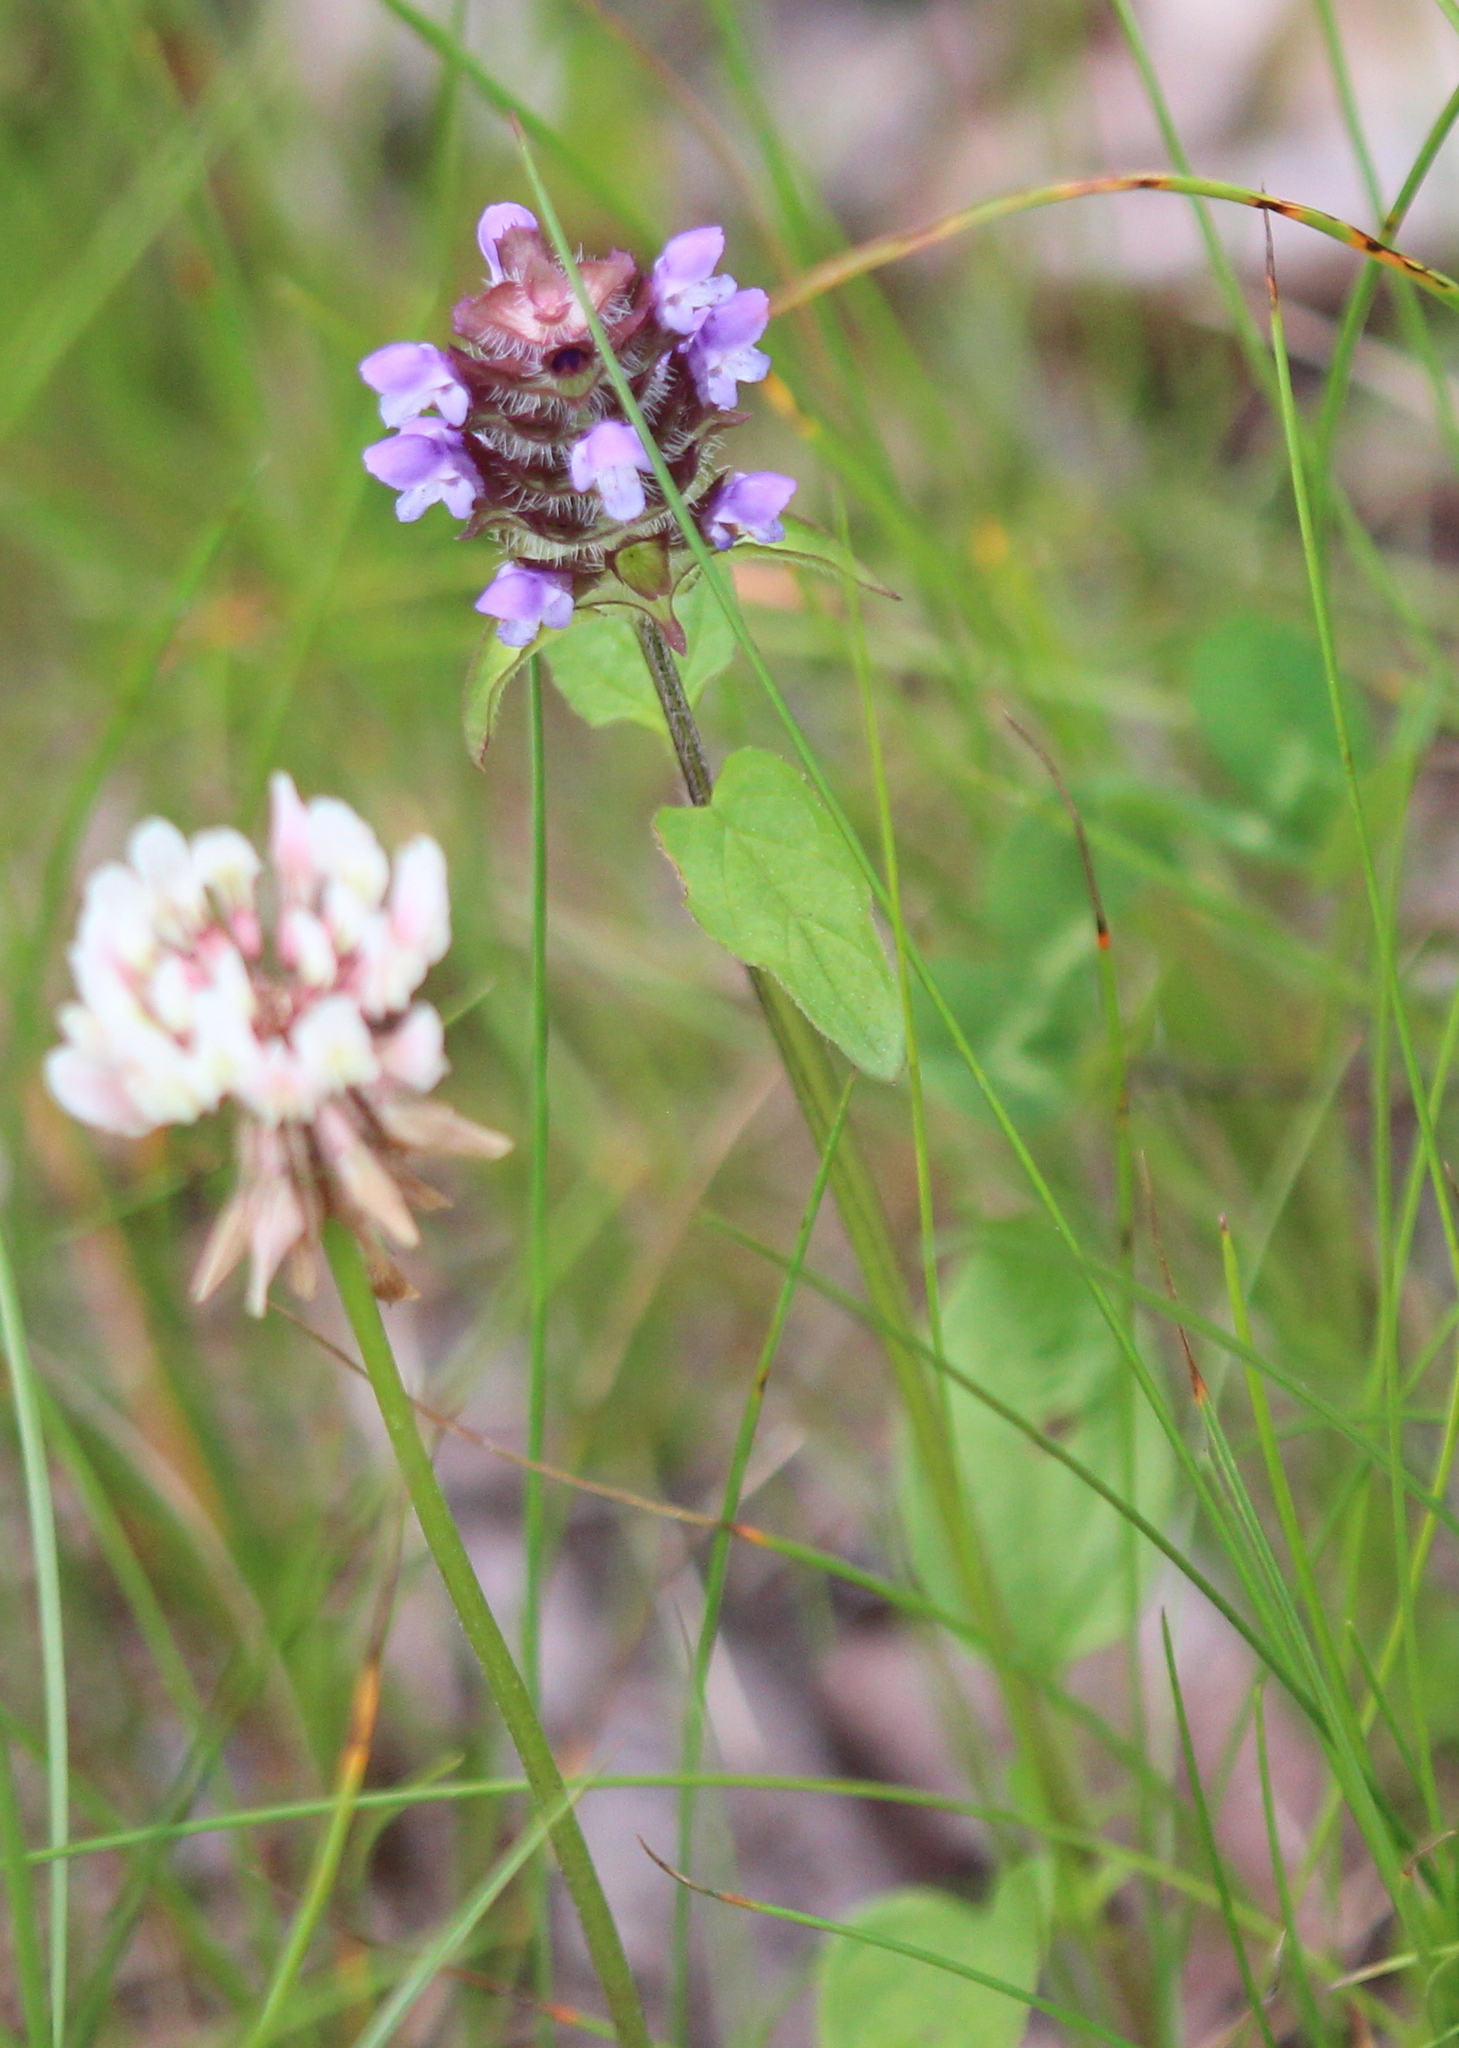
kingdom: Plantae
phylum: Tracheophyta
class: Magnoliopsida
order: Lamiales
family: Lamiaceae
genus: Prunella
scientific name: Prunella vulgaris
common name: Heal-all
